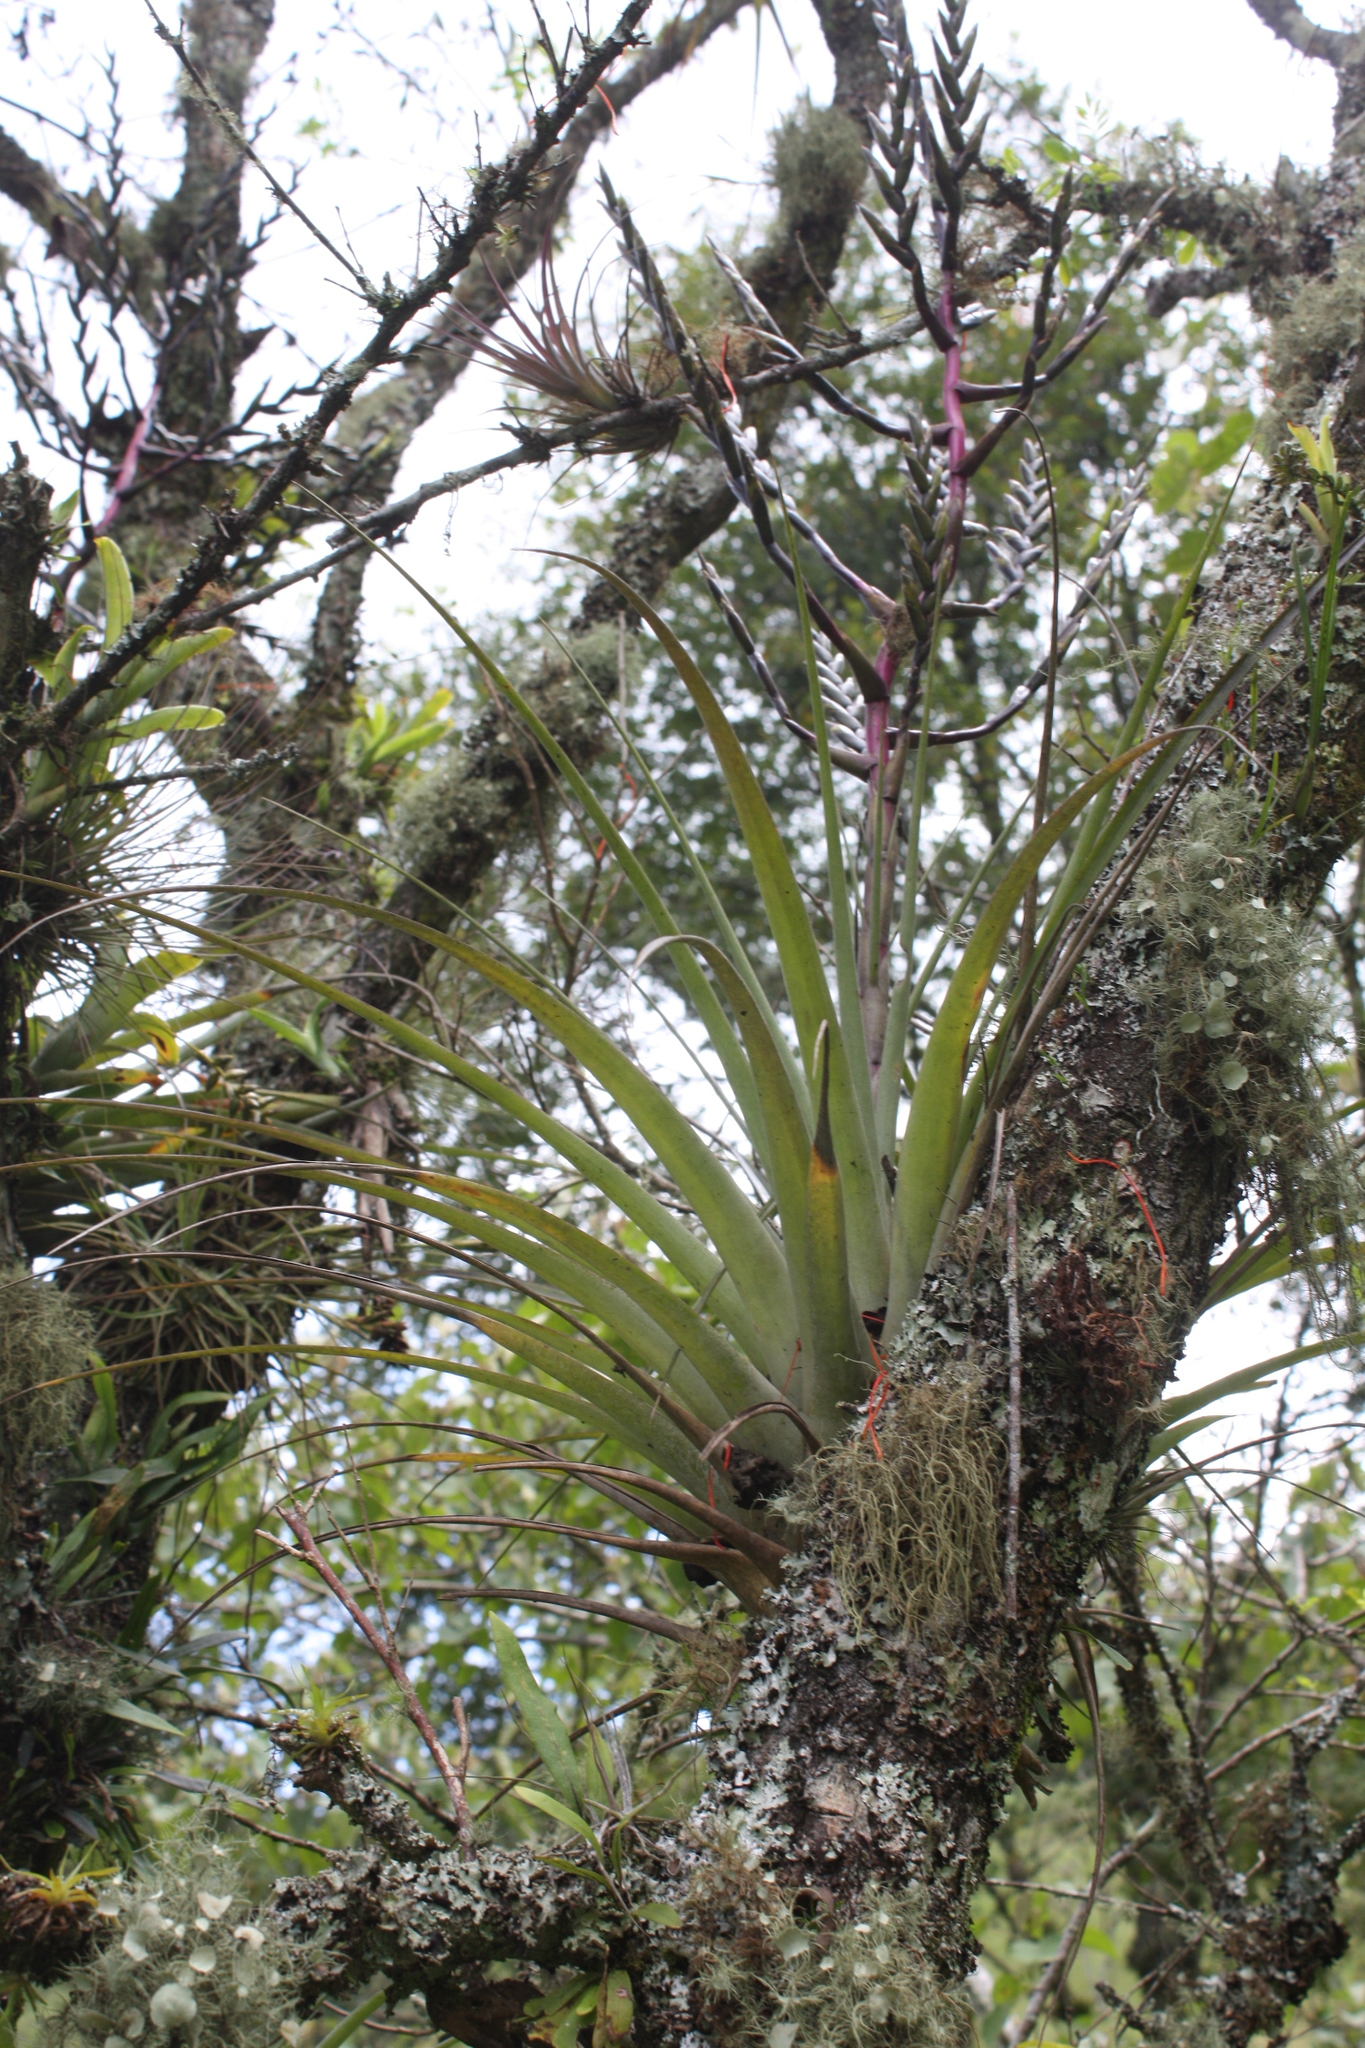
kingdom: Plantae
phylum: Tracheophyta
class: Liliopsida
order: Poales
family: Bromeliaceae
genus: Tillandsia
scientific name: Tillandsia cucaensis
